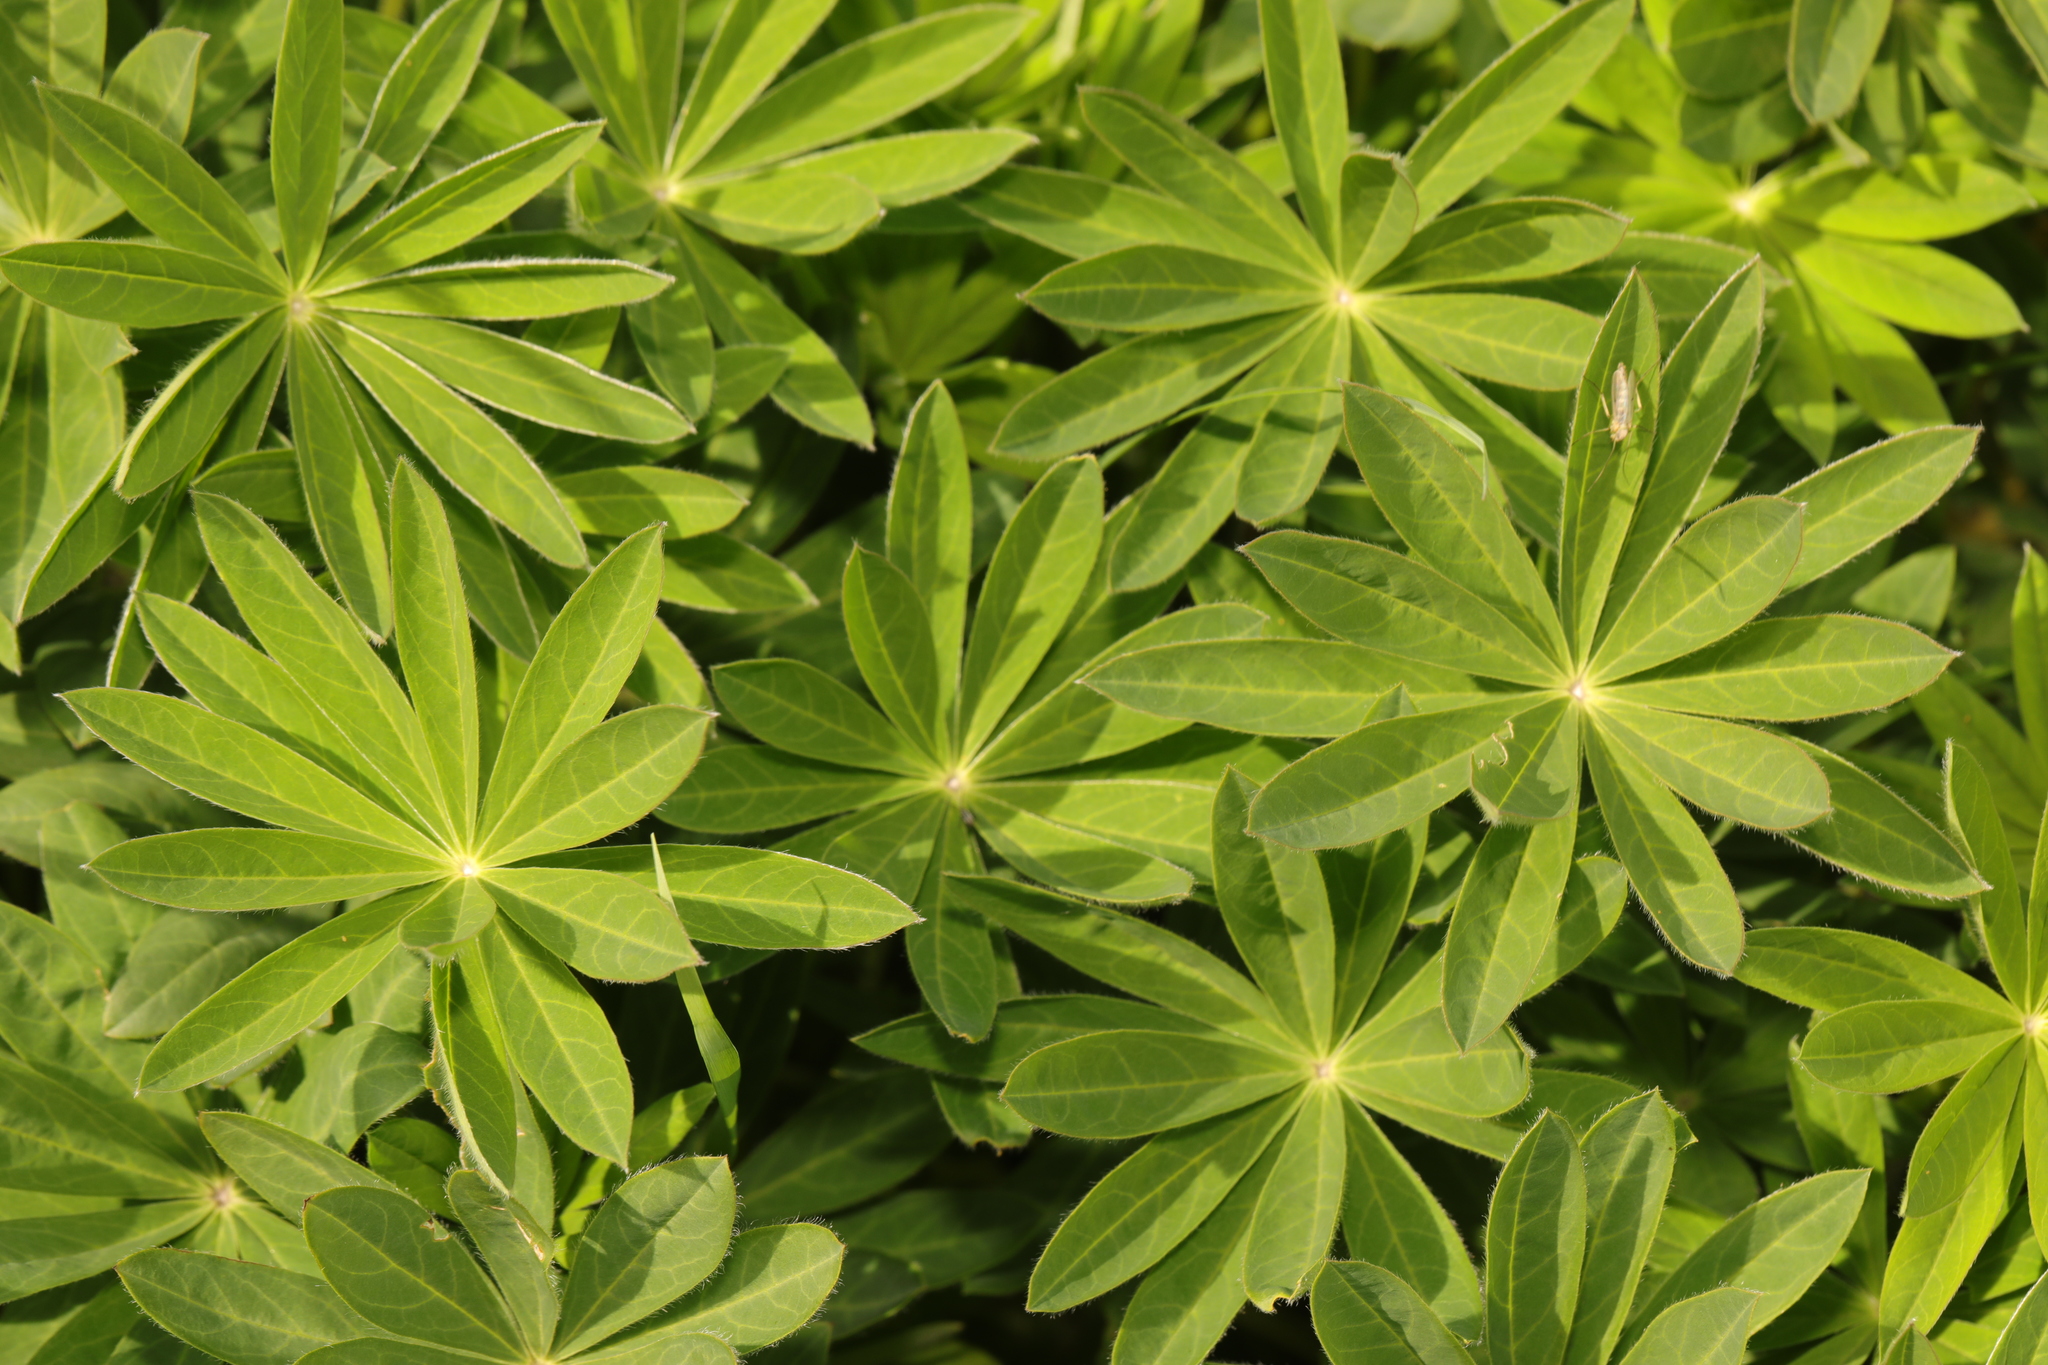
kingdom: Plantae
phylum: Tracheophyta
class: Magnoliopsida
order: Fabales
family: Fabaceae
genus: Lupinus
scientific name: Lupinus regalis
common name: Russell lupin
